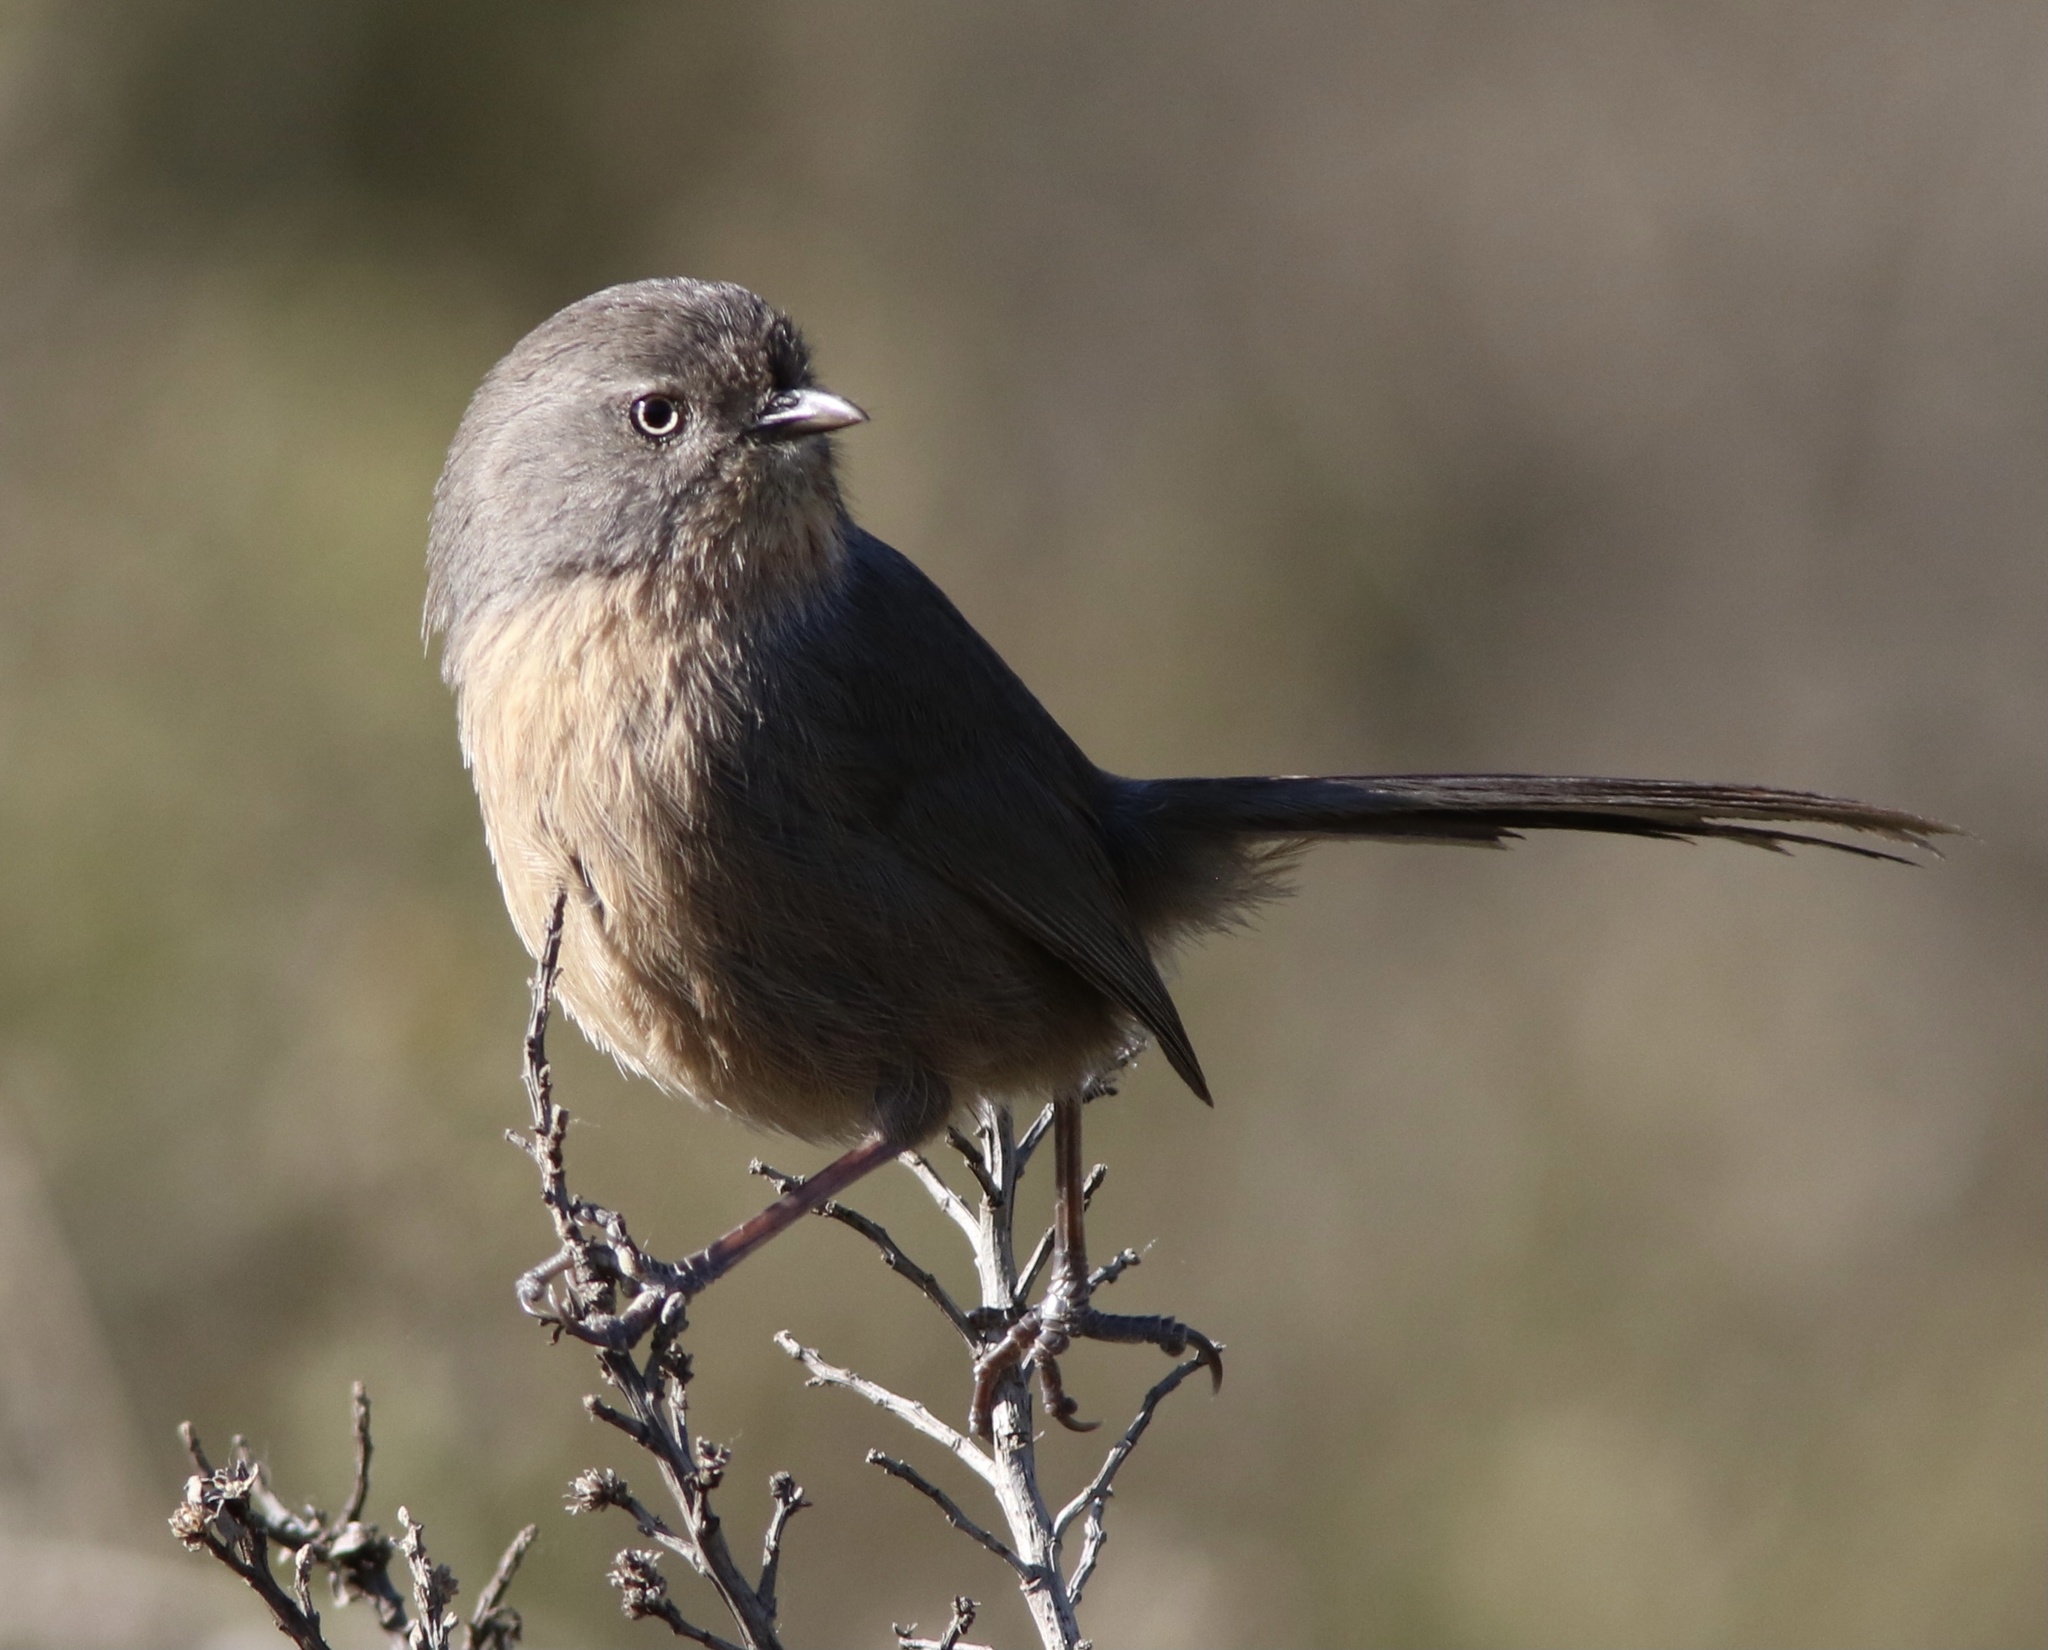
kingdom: Animalia
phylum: Chordata
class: Aves
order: Passeriformes
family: Sylviidae
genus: Chamaea
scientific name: Chamaea fasciata
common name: Wrentit
